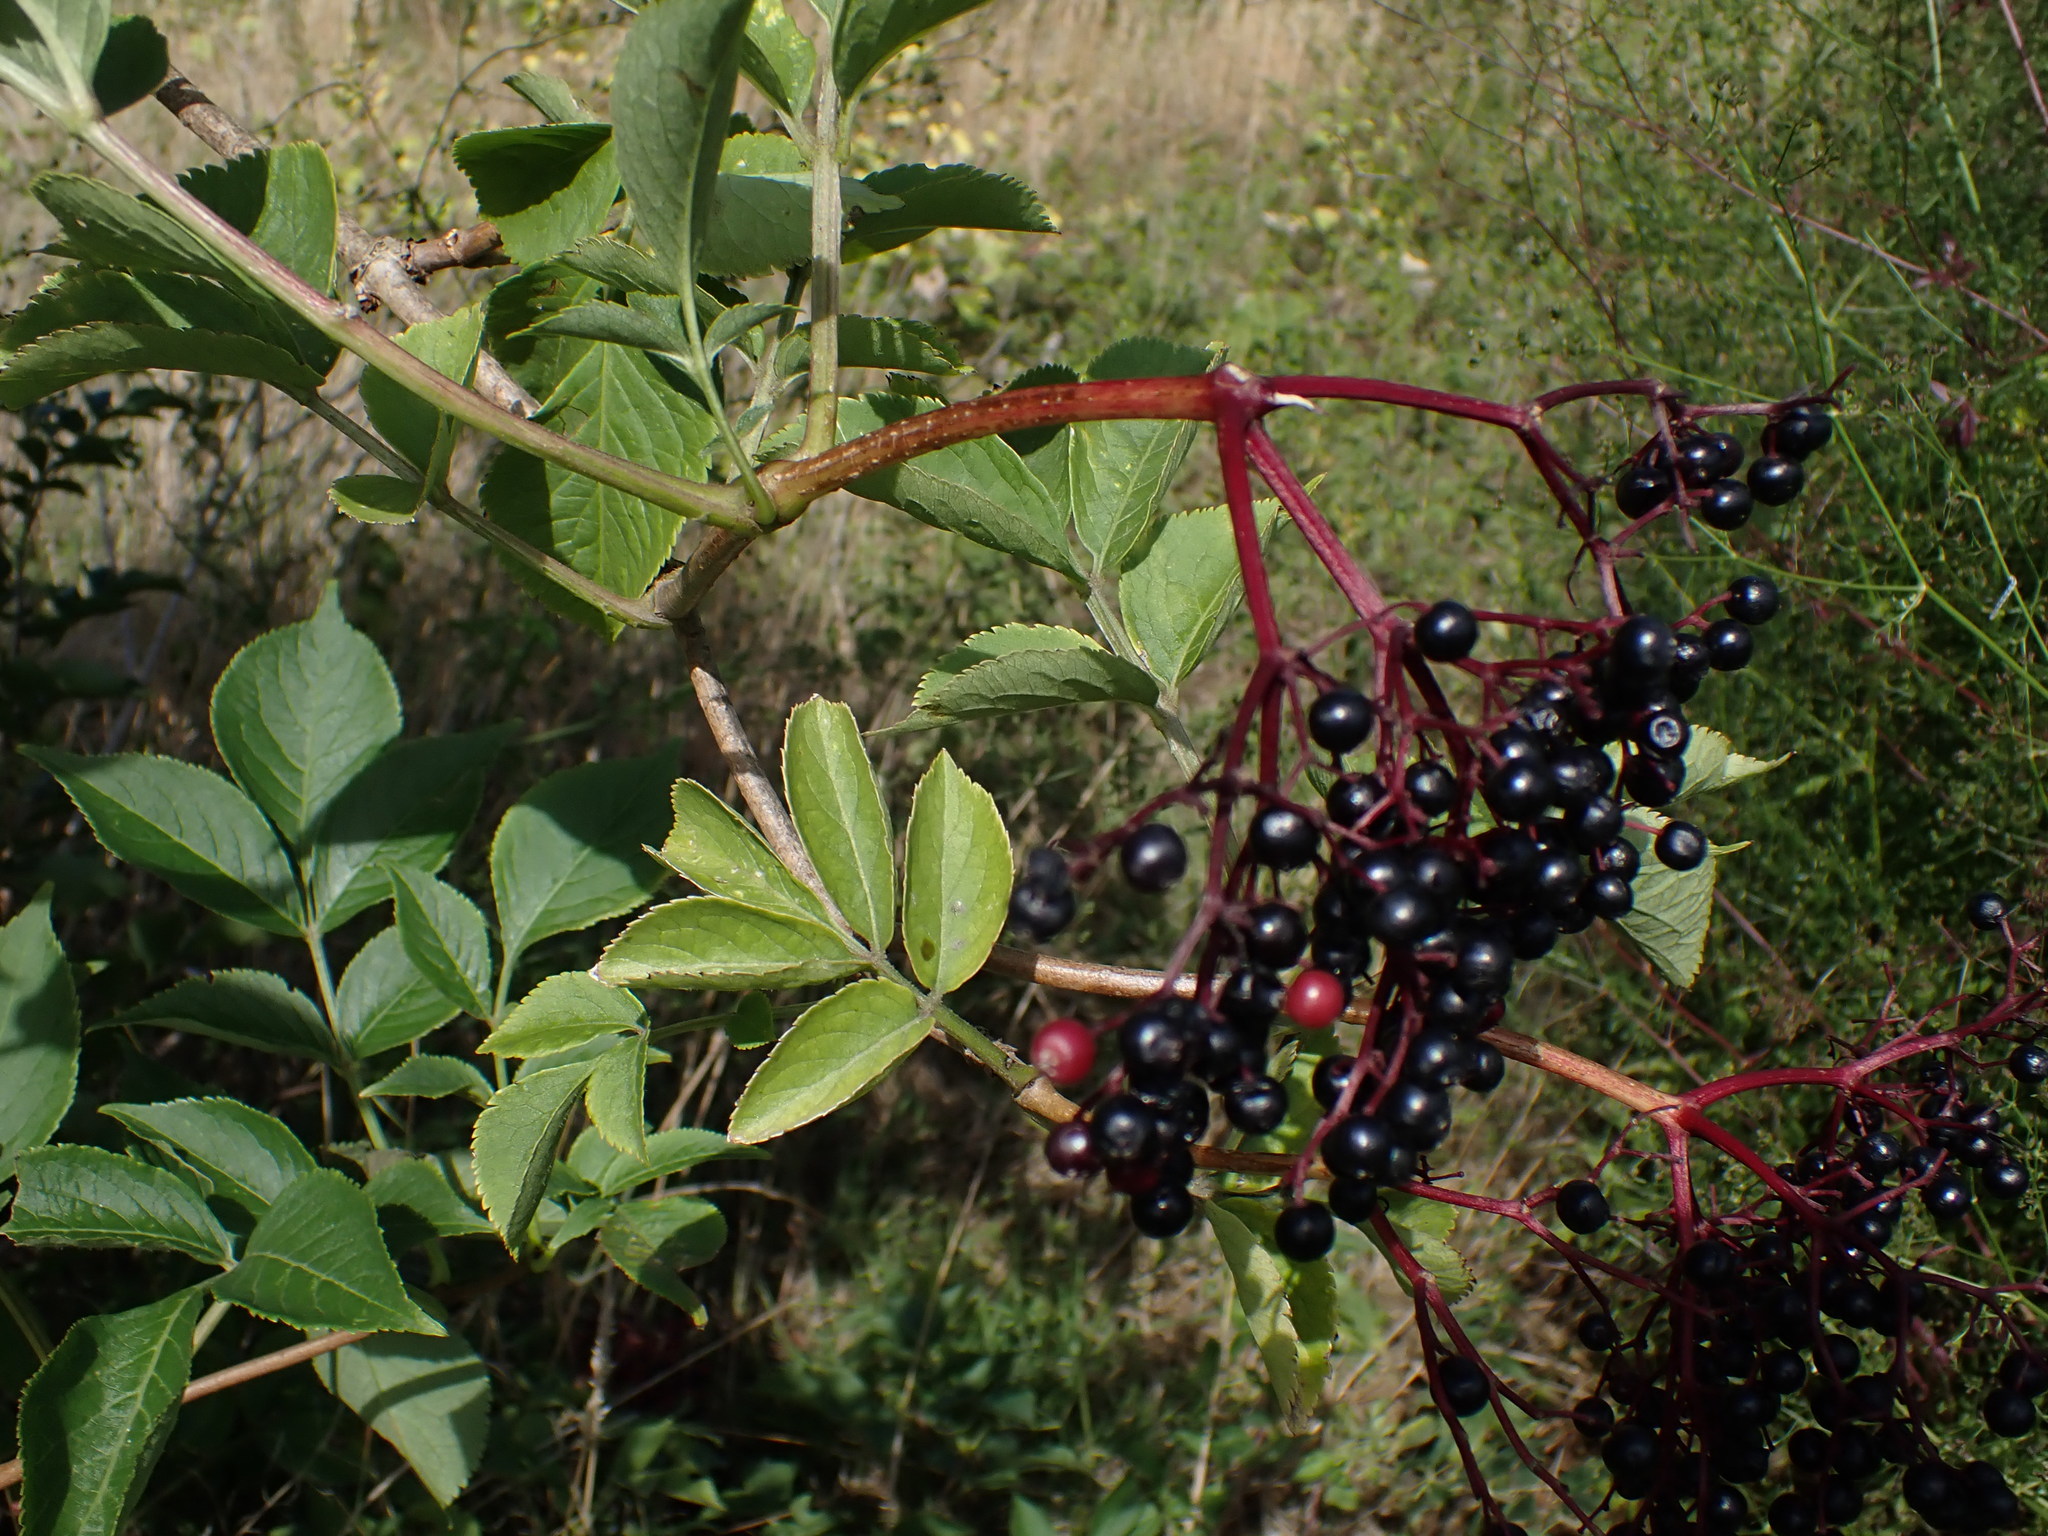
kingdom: Plantae
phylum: Tracheophyta
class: Magnoliopsida
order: Dipsacales
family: Viburnaceae
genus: Sambucus
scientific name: Sambucus nigra
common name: Elder
